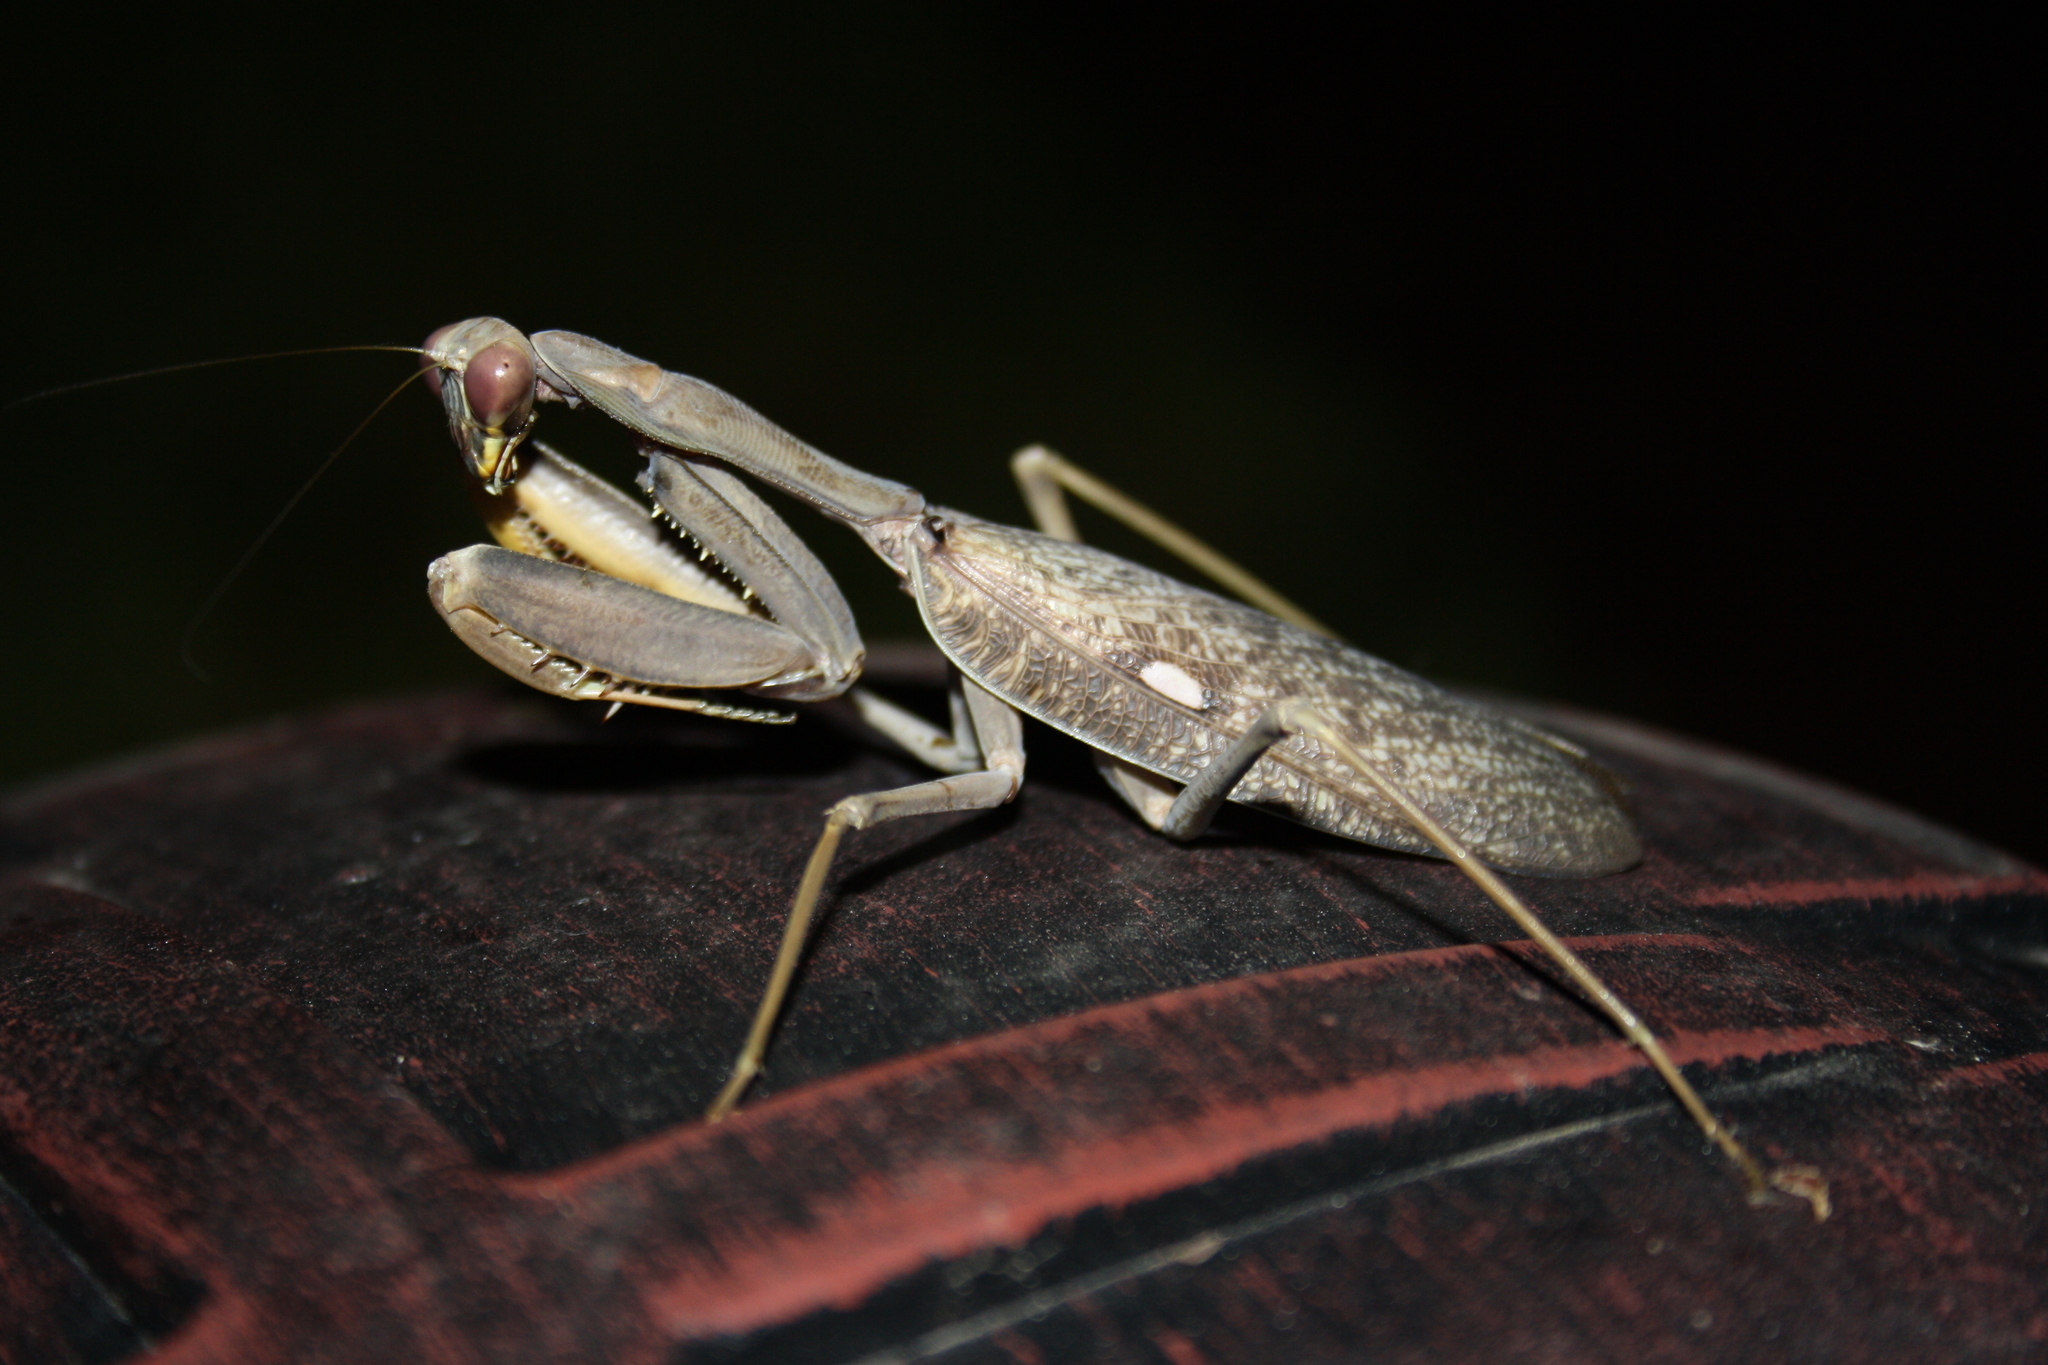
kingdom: Animalia
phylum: Arthropoda
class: Insecta
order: Mantodea
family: Mantidae
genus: Sphodromantis
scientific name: Sphodromantis viridis
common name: Giant african mantis
